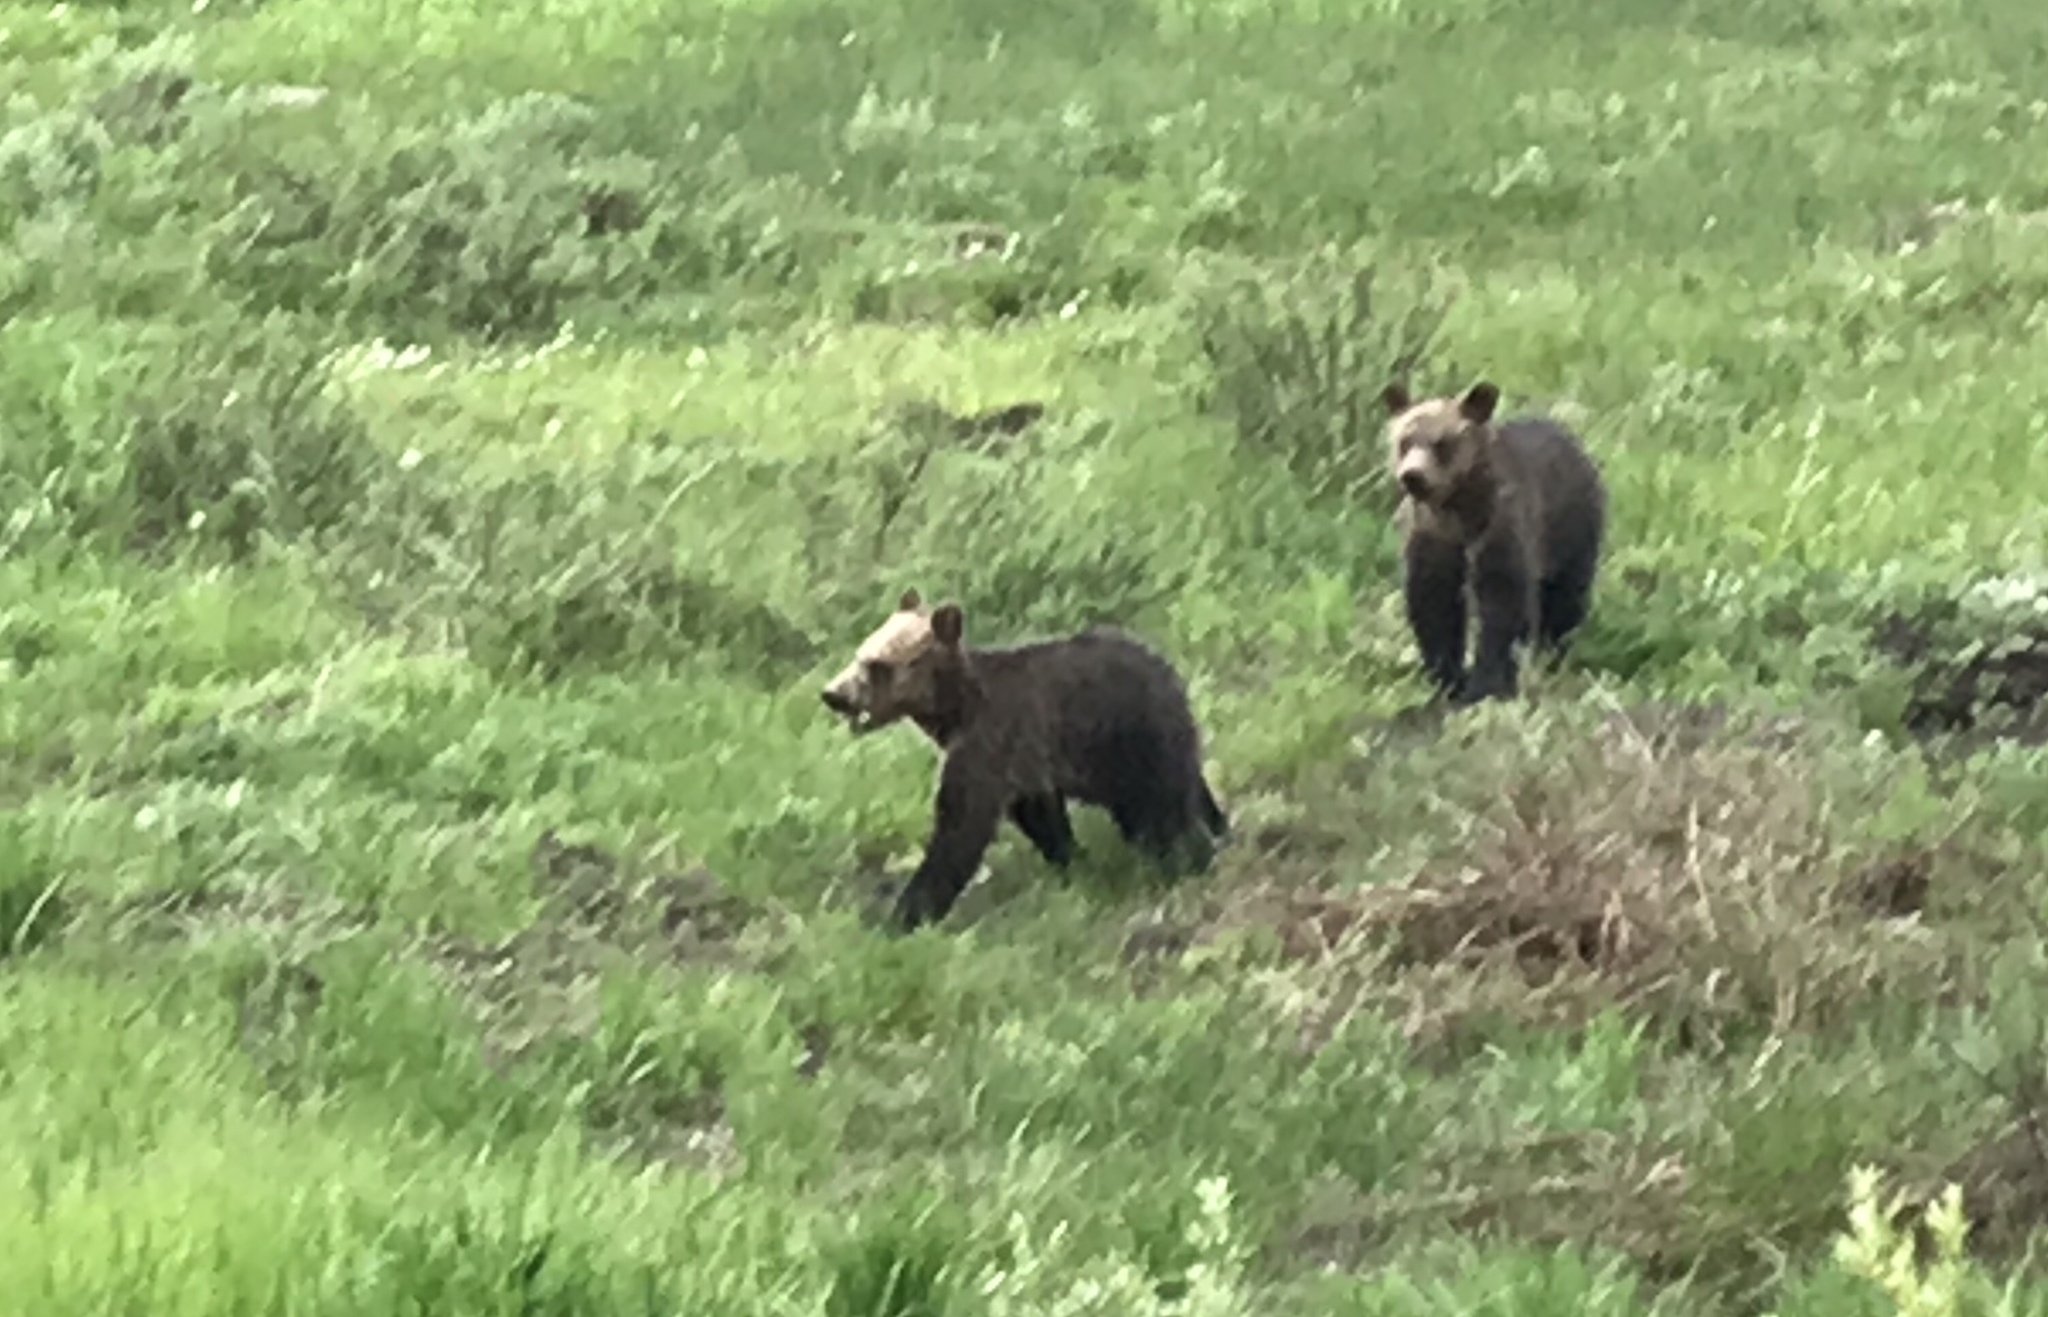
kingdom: Animalia
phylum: Chordata
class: Mammalia
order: Carnivora
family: Ursidae
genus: Ursus
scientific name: Ursus arctos
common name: Brown bear
